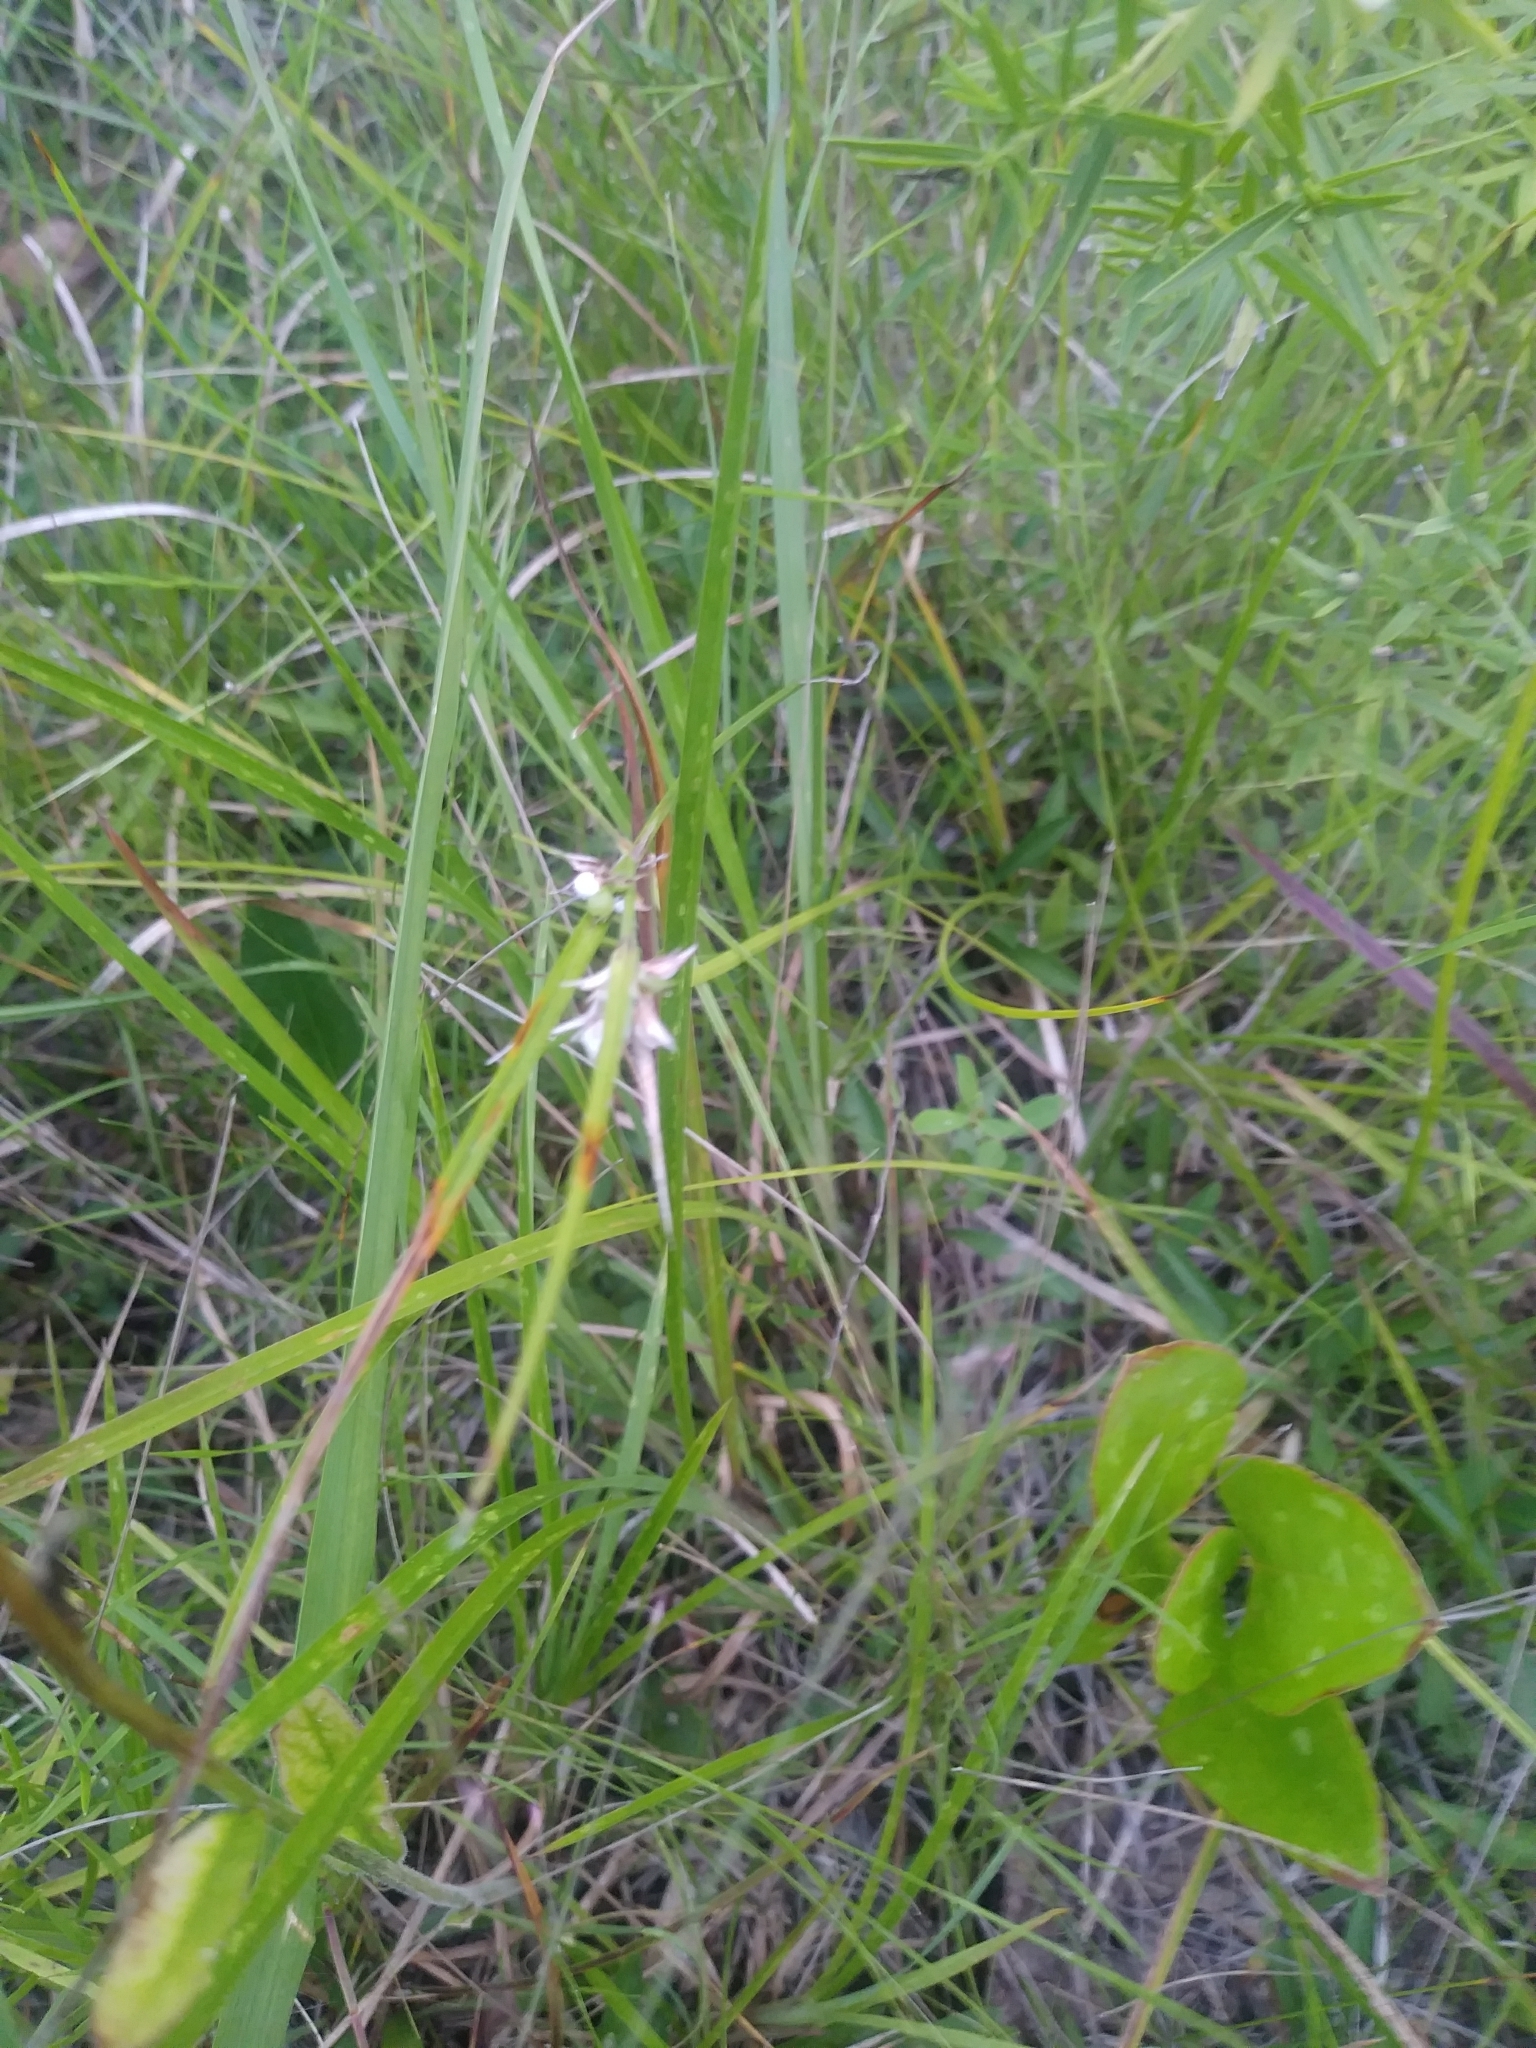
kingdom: Plantae
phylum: Tracheophyta
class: Liliopsida
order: Poales
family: Cyperaceae
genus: Scleria
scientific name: Scleria pauciflora
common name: Few-flowered nutrush
